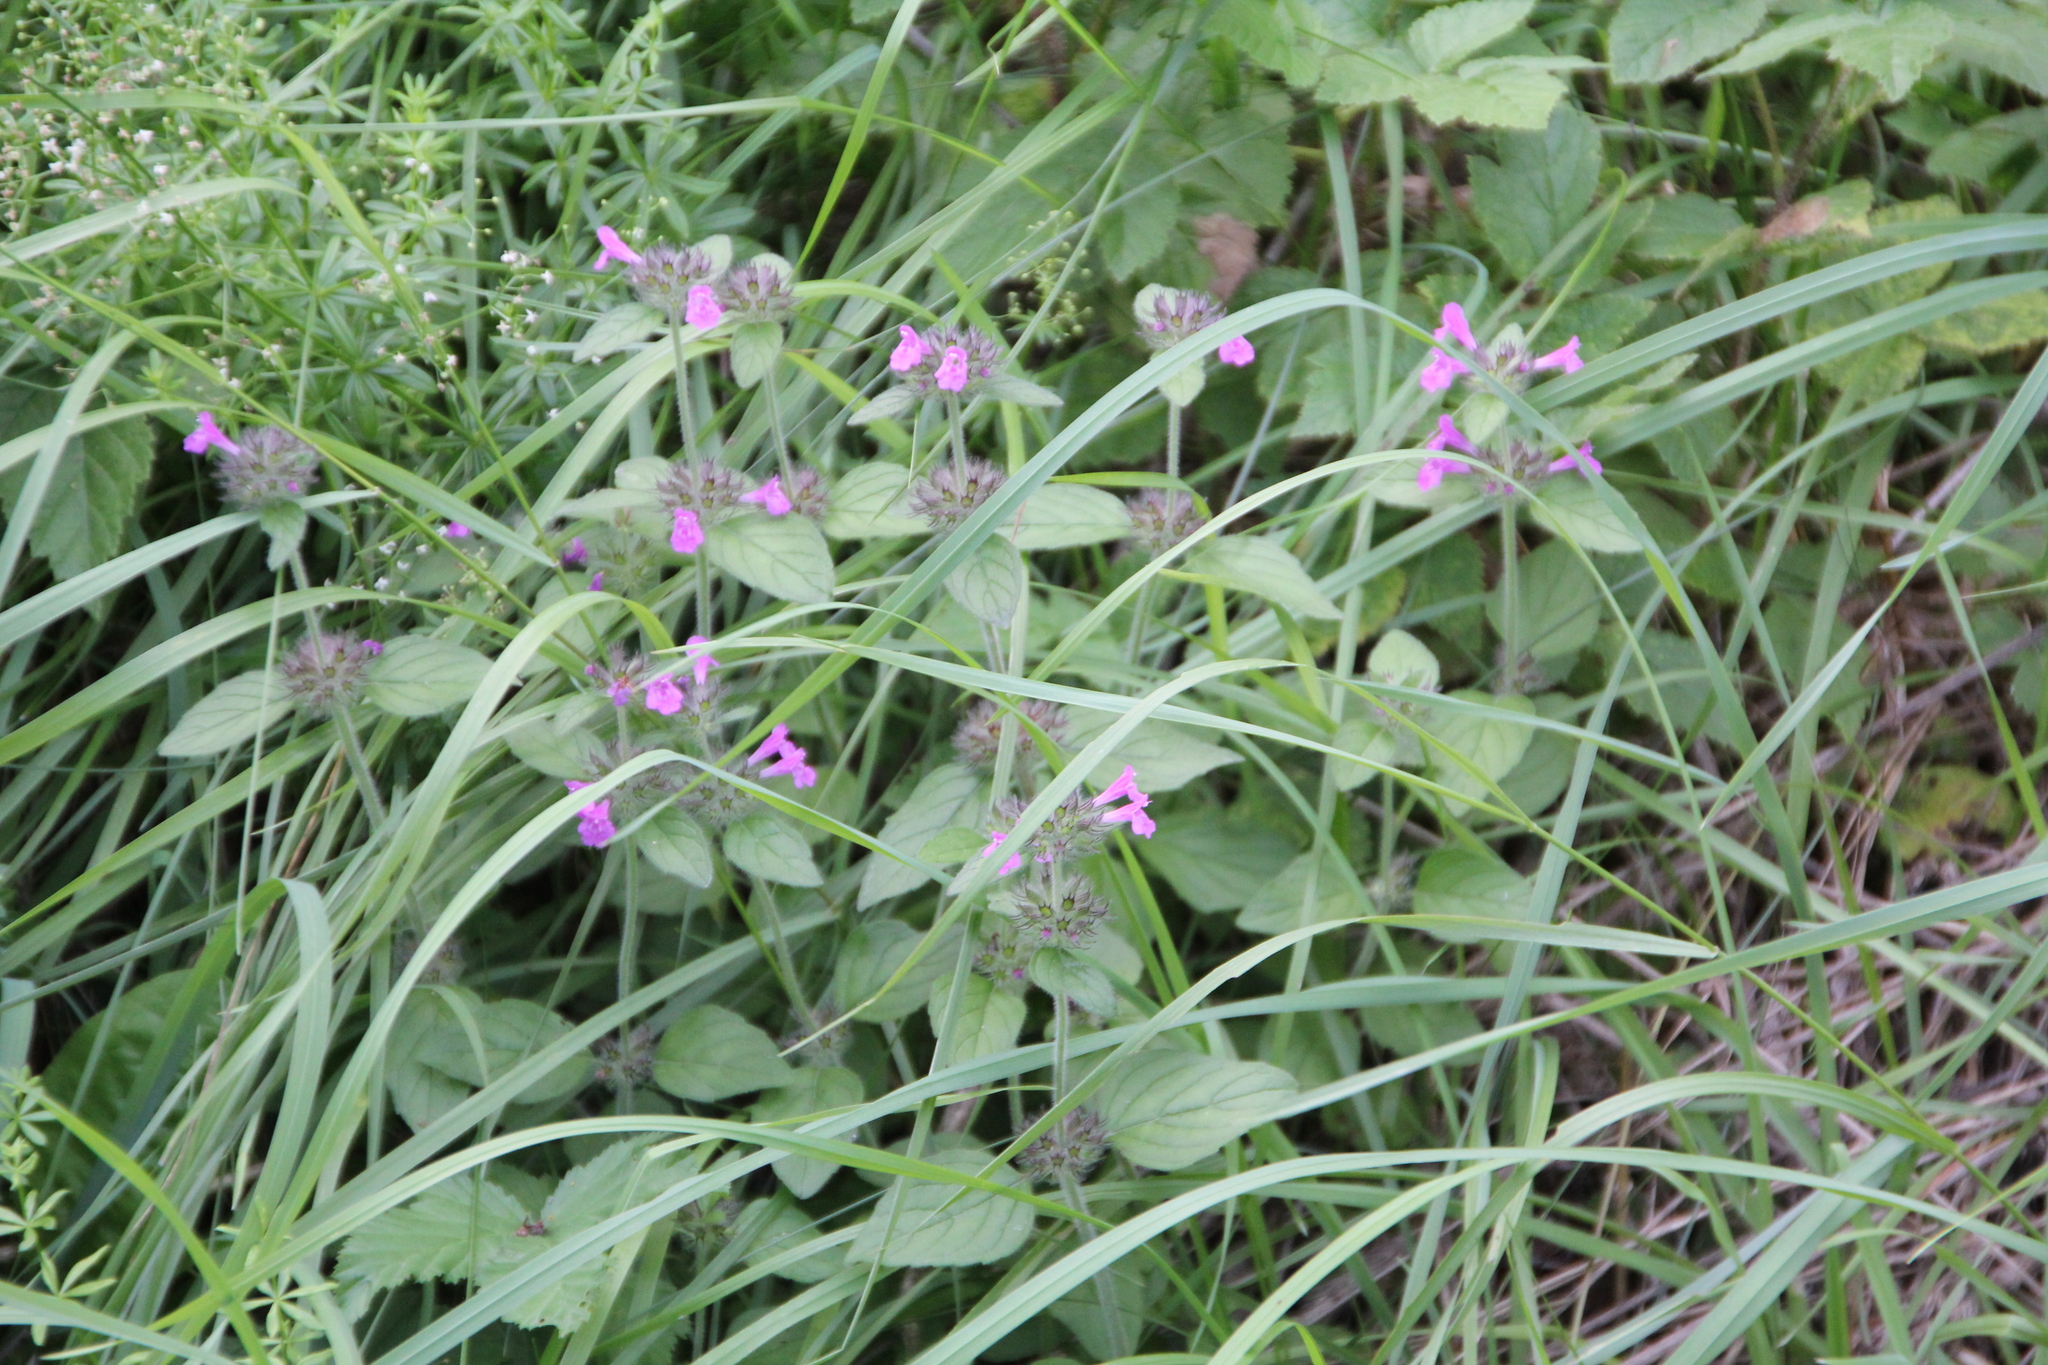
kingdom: Plantae
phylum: Tracheophyta
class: Magnoliopsida
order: Lamiales
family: Lamiaceae
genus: Clinopodium
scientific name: Clinopodium vulgare
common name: Wild basil
